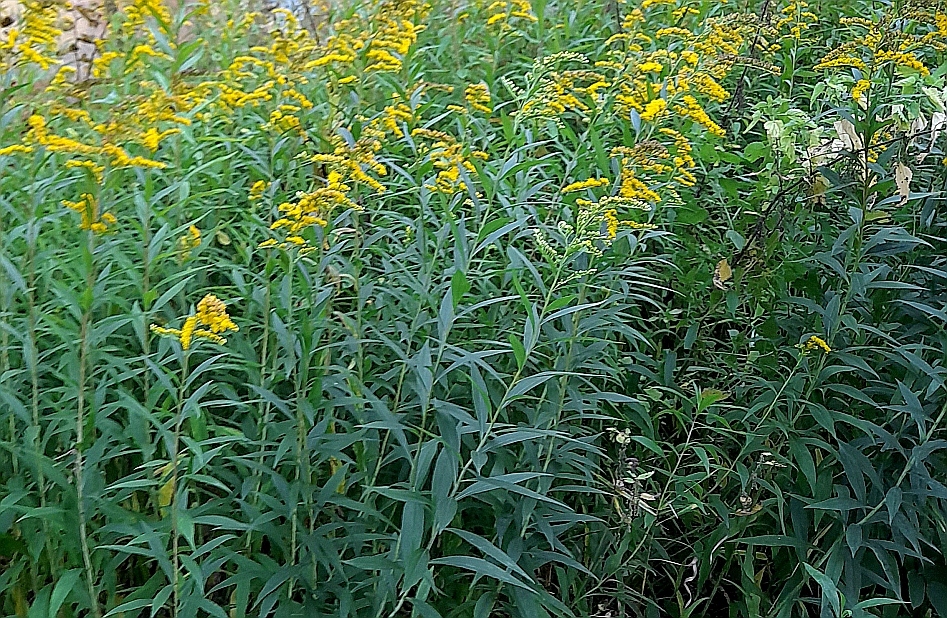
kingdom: Plantae
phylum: Tracheophyta
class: Magnoliopsida
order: Asterales
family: Asteraceae
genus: Solidago
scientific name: Solidago gigantea
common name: Giant goldenrod
